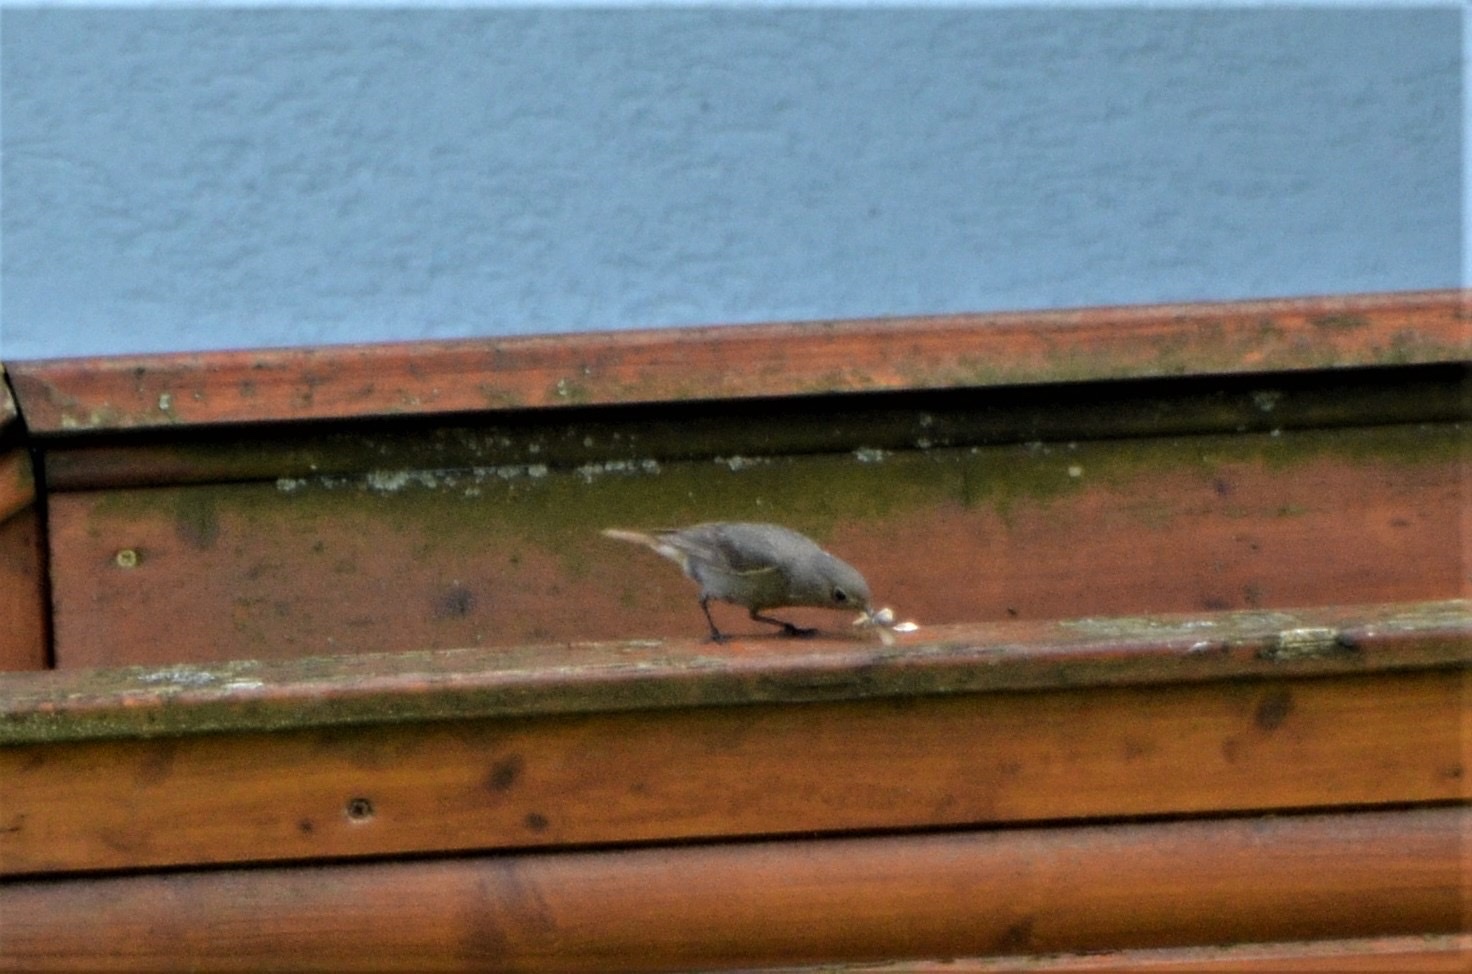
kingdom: Animalia
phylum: Chordata
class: Aves
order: Passeriformes
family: Muscicapidae
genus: Phoenicurus
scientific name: Phoenicurus ochruros
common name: Black redstart
